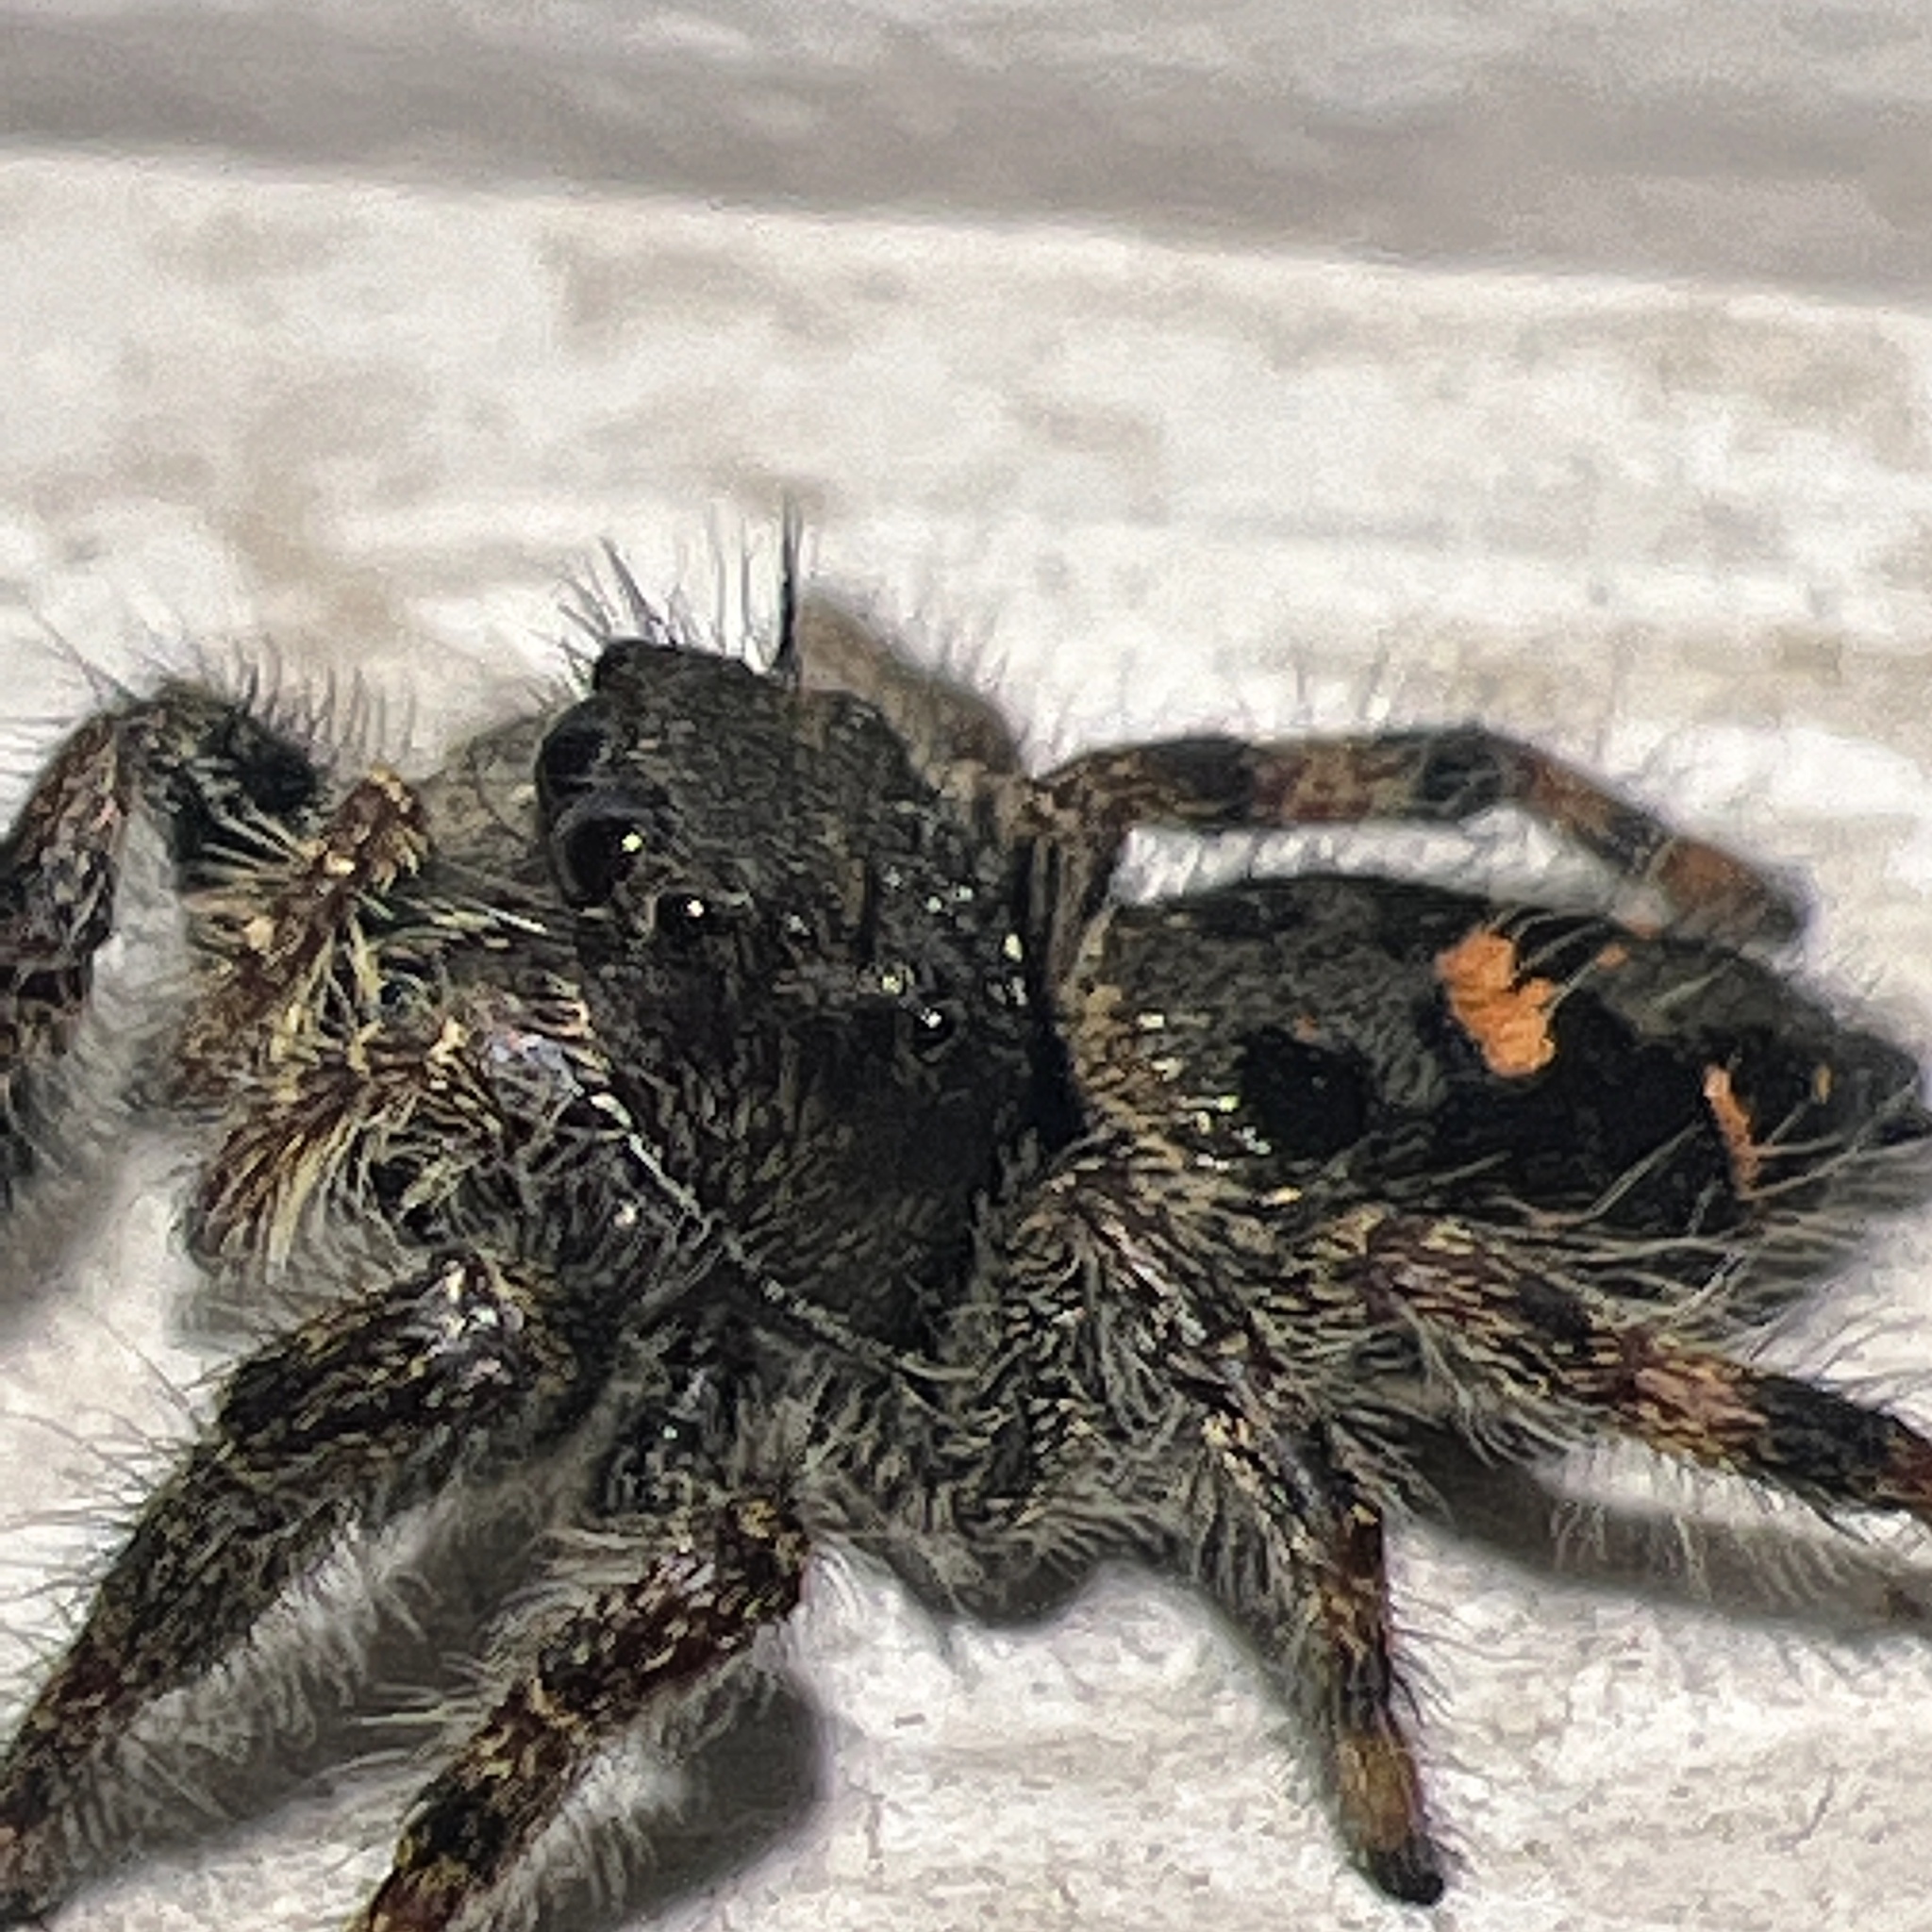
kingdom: Animalia
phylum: Arthropoda
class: Arachnida
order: Araneae
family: Salticidae
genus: Phidippus
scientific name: Phidippus audax
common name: Bold jumper
